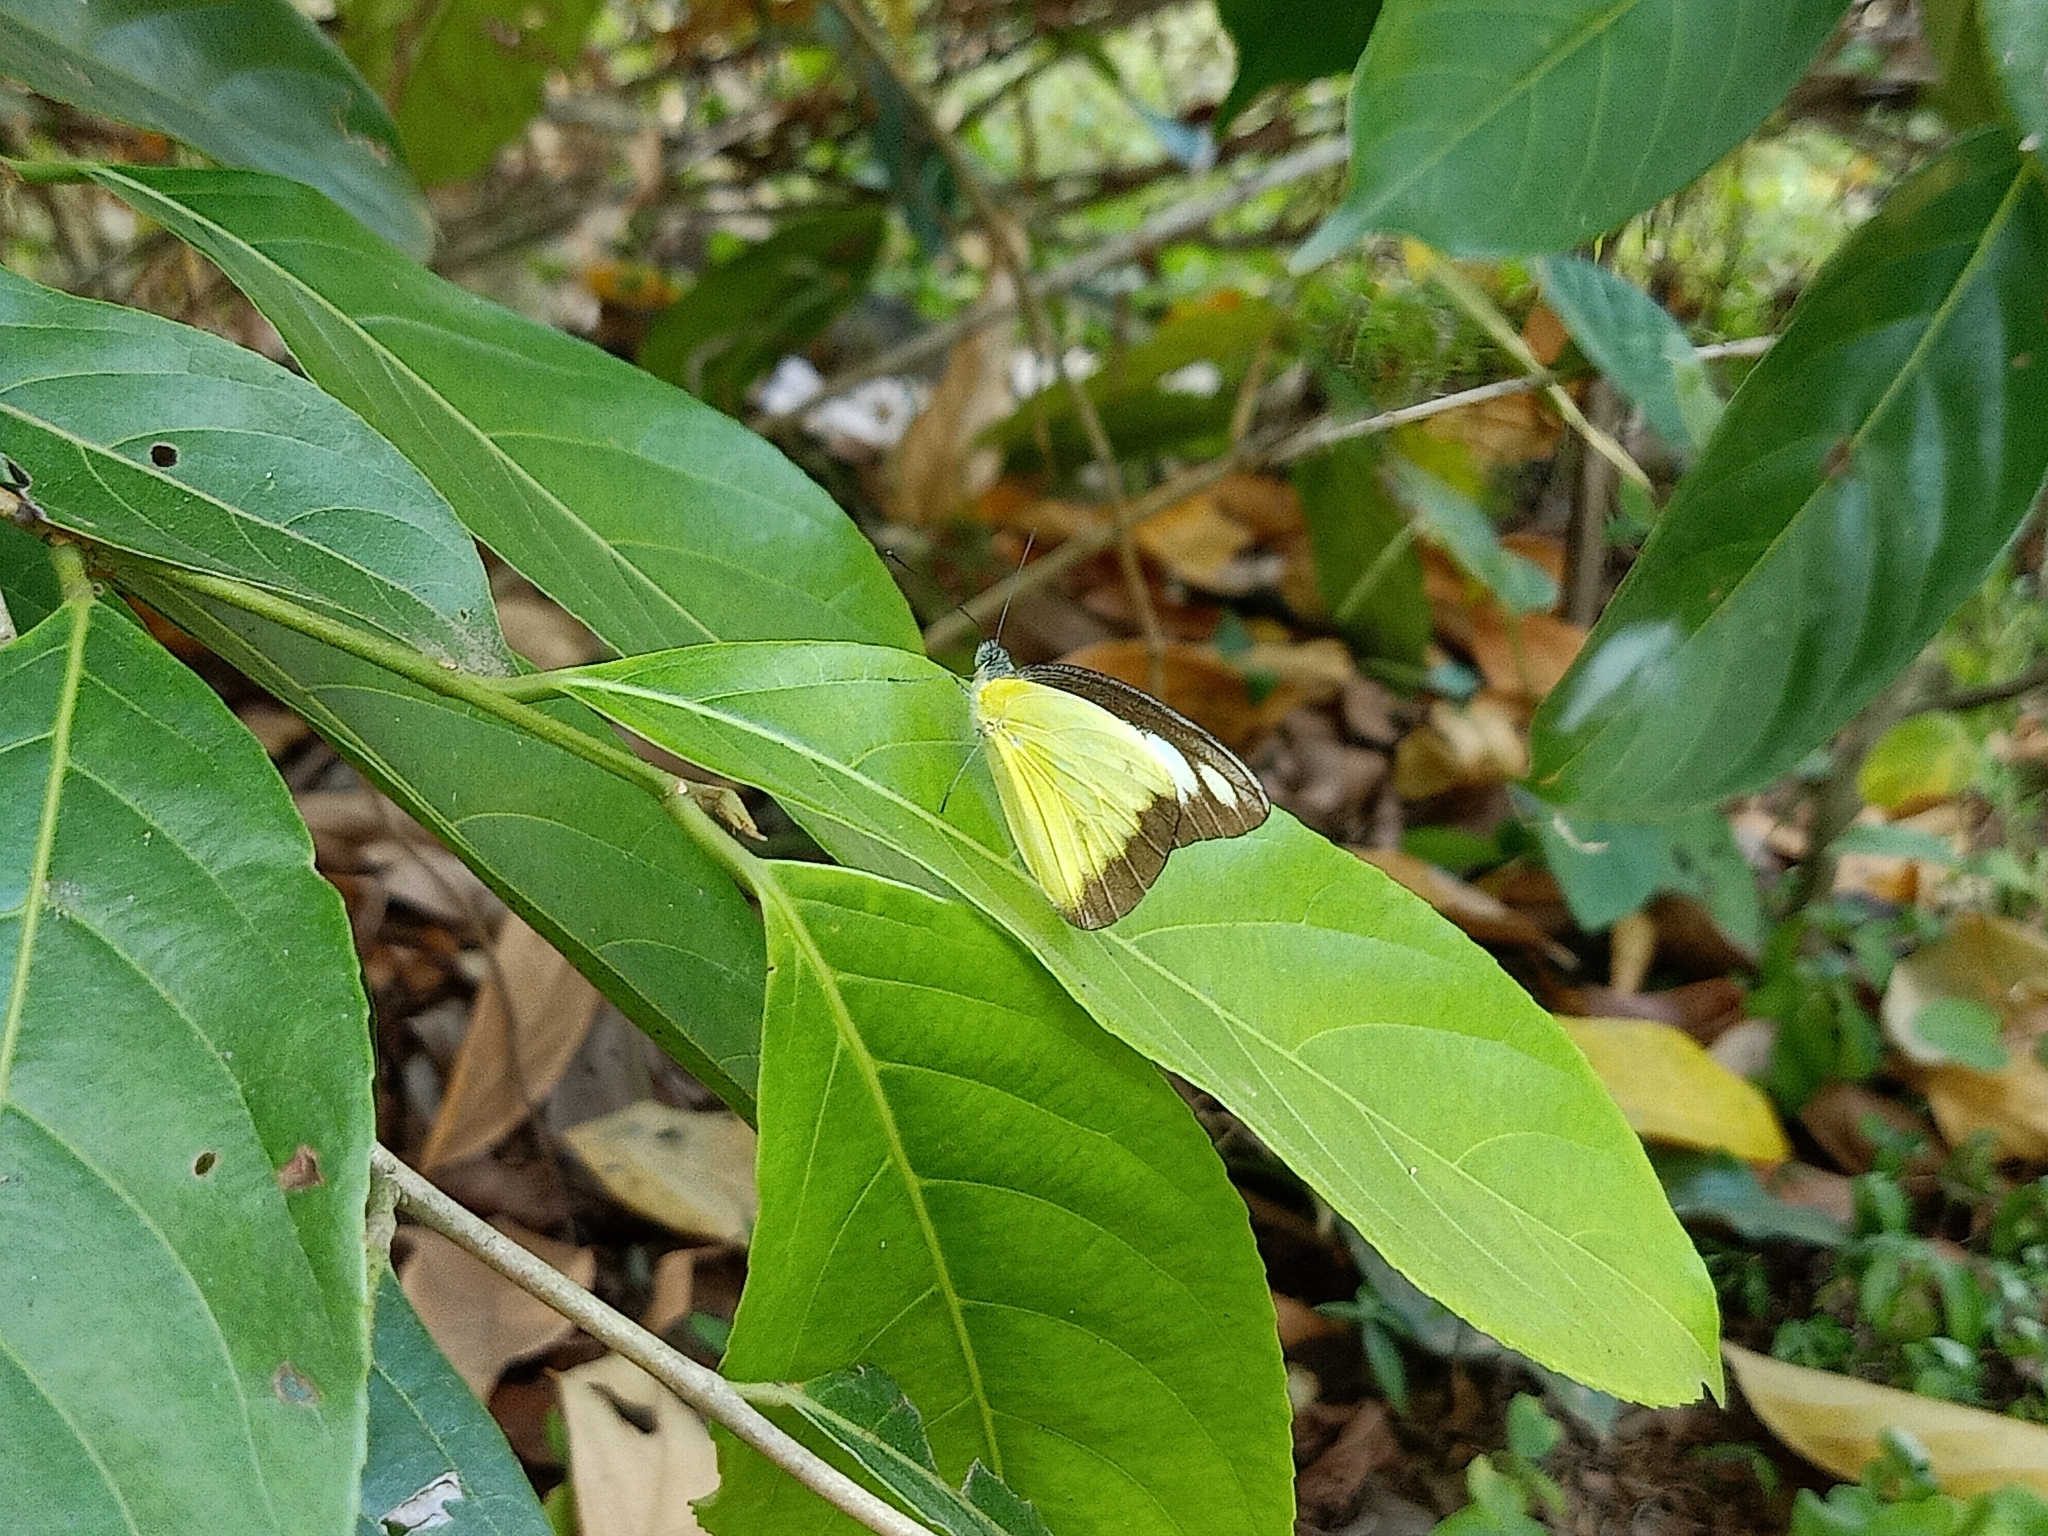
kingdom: Animalia
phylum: Arthropoda
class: Insecta
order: Lepidoptera
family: Pieridae
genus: Appias
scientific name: Appias lyncida
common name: Chocolate albatross
